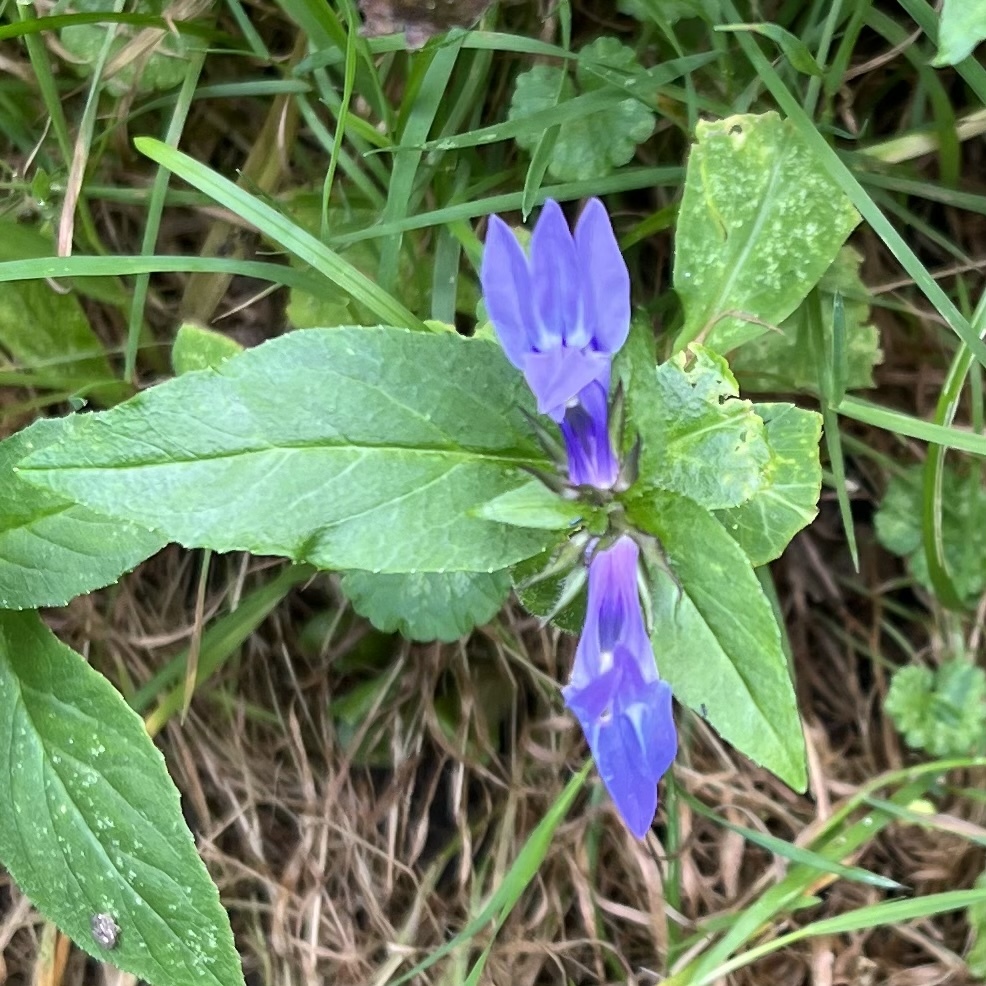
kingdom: Plantae
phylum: Tracheophyta
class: Magnoliopsida
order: Asterales
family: Campanulaceae
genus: Lobelia
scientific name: Lobelia siphilitica
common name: Great lobelia
